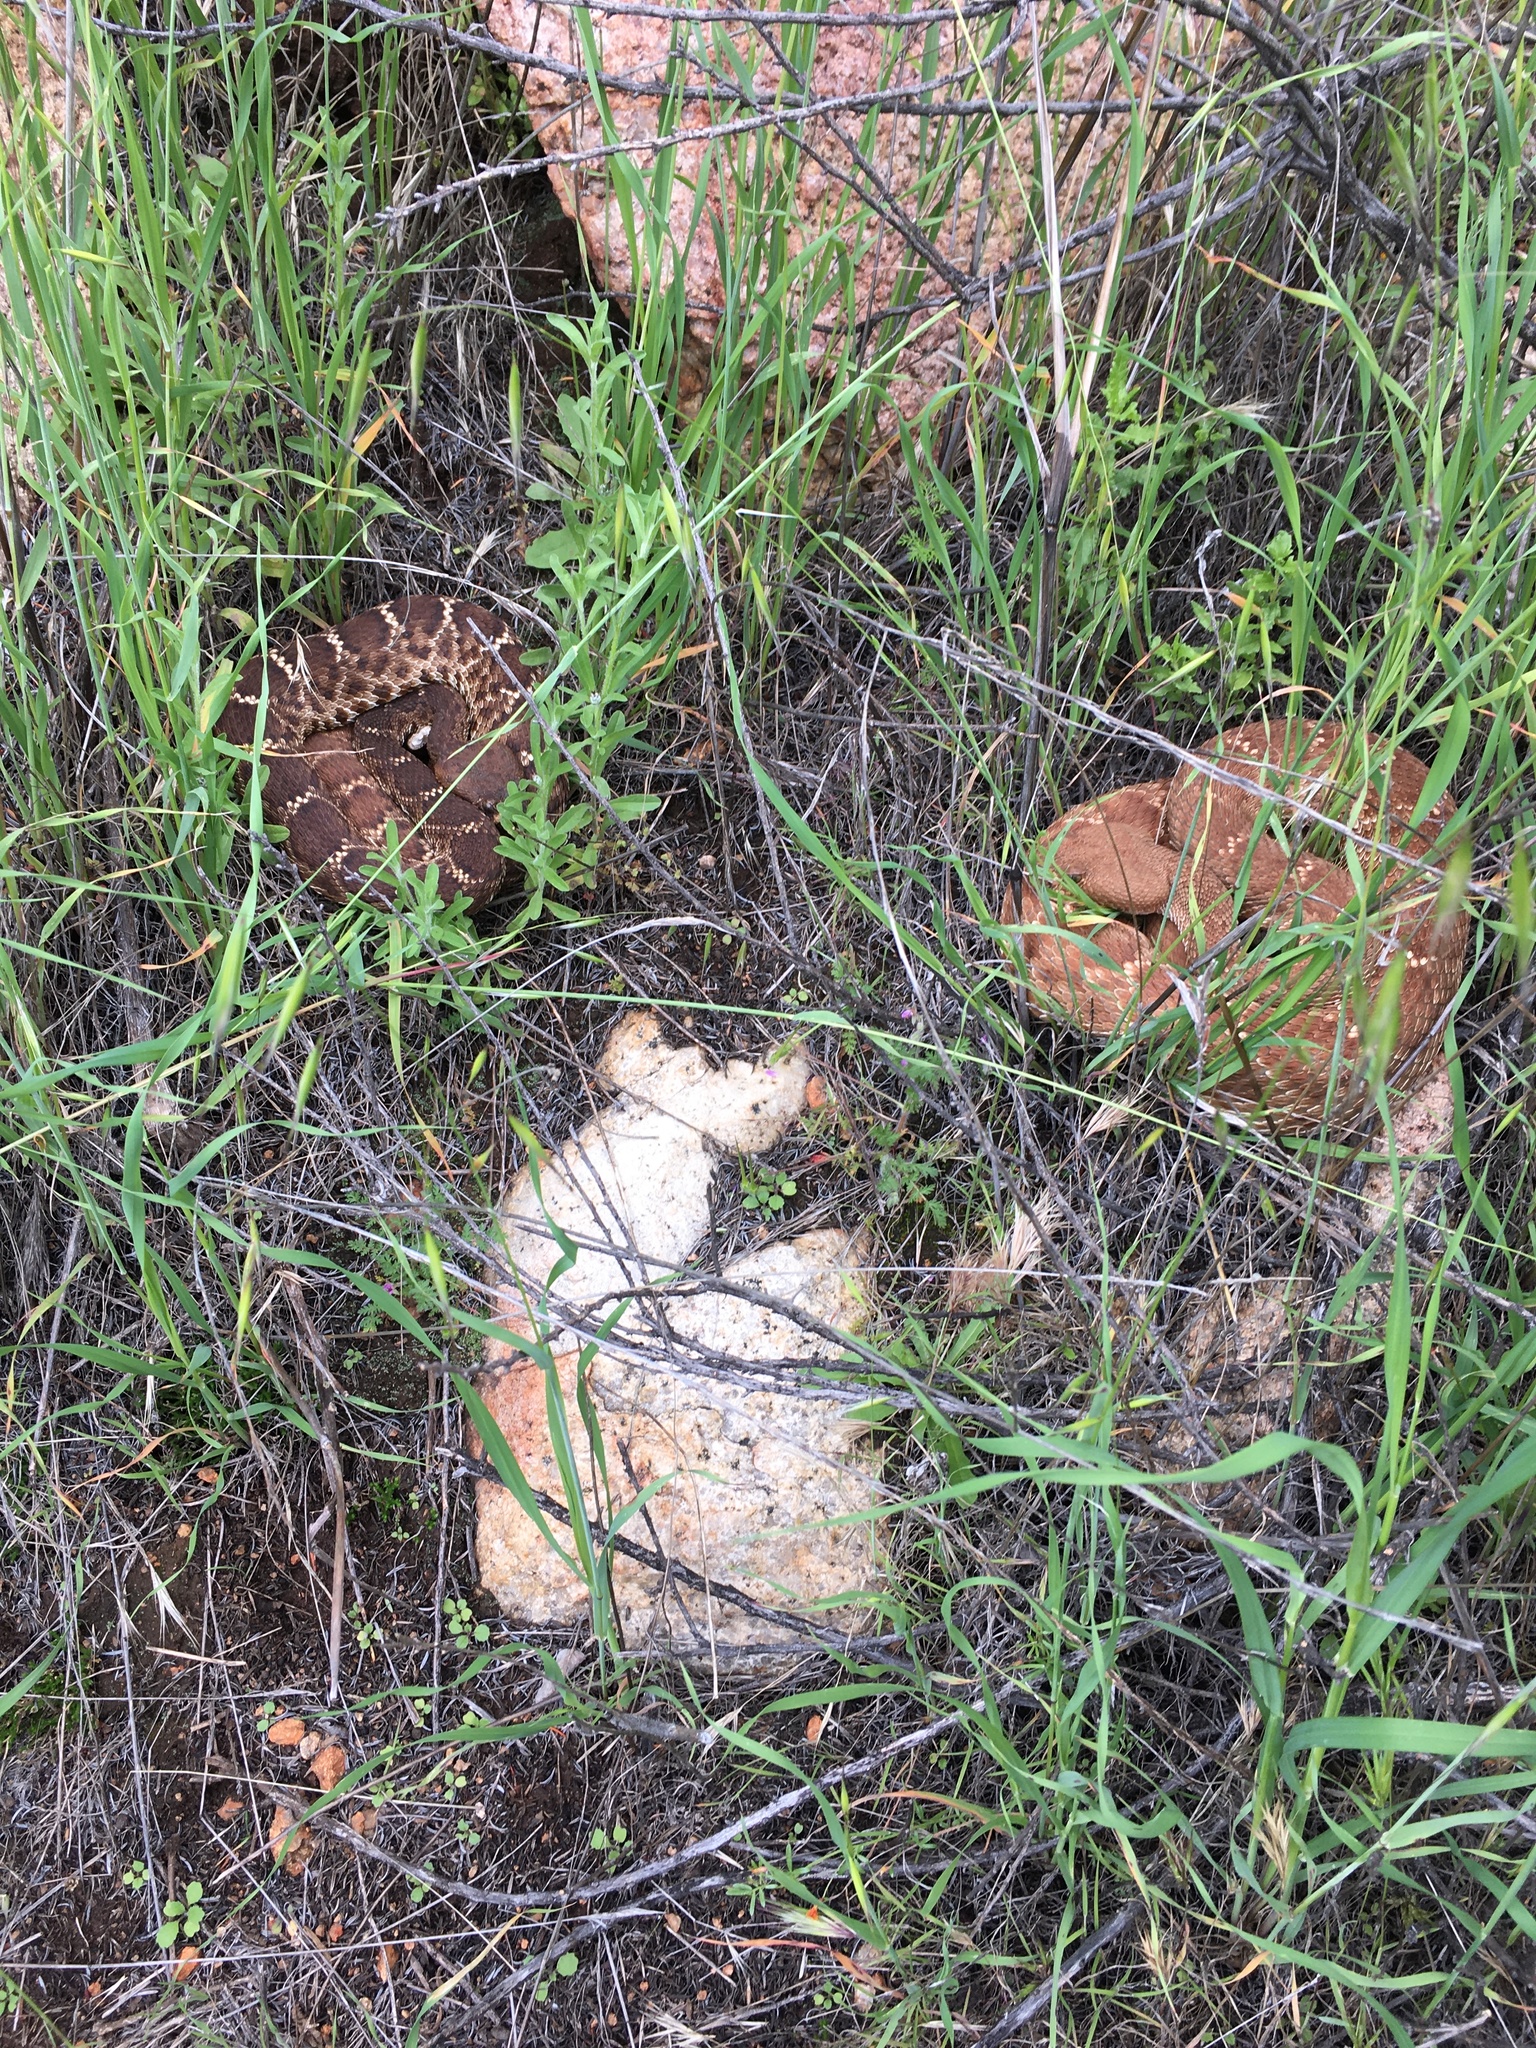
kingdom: Animalia
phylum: Chordata
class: Squamata
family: Viperidae
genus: Crotalus
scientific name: Crotalus ruber
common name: Red diamond rattlesnake
